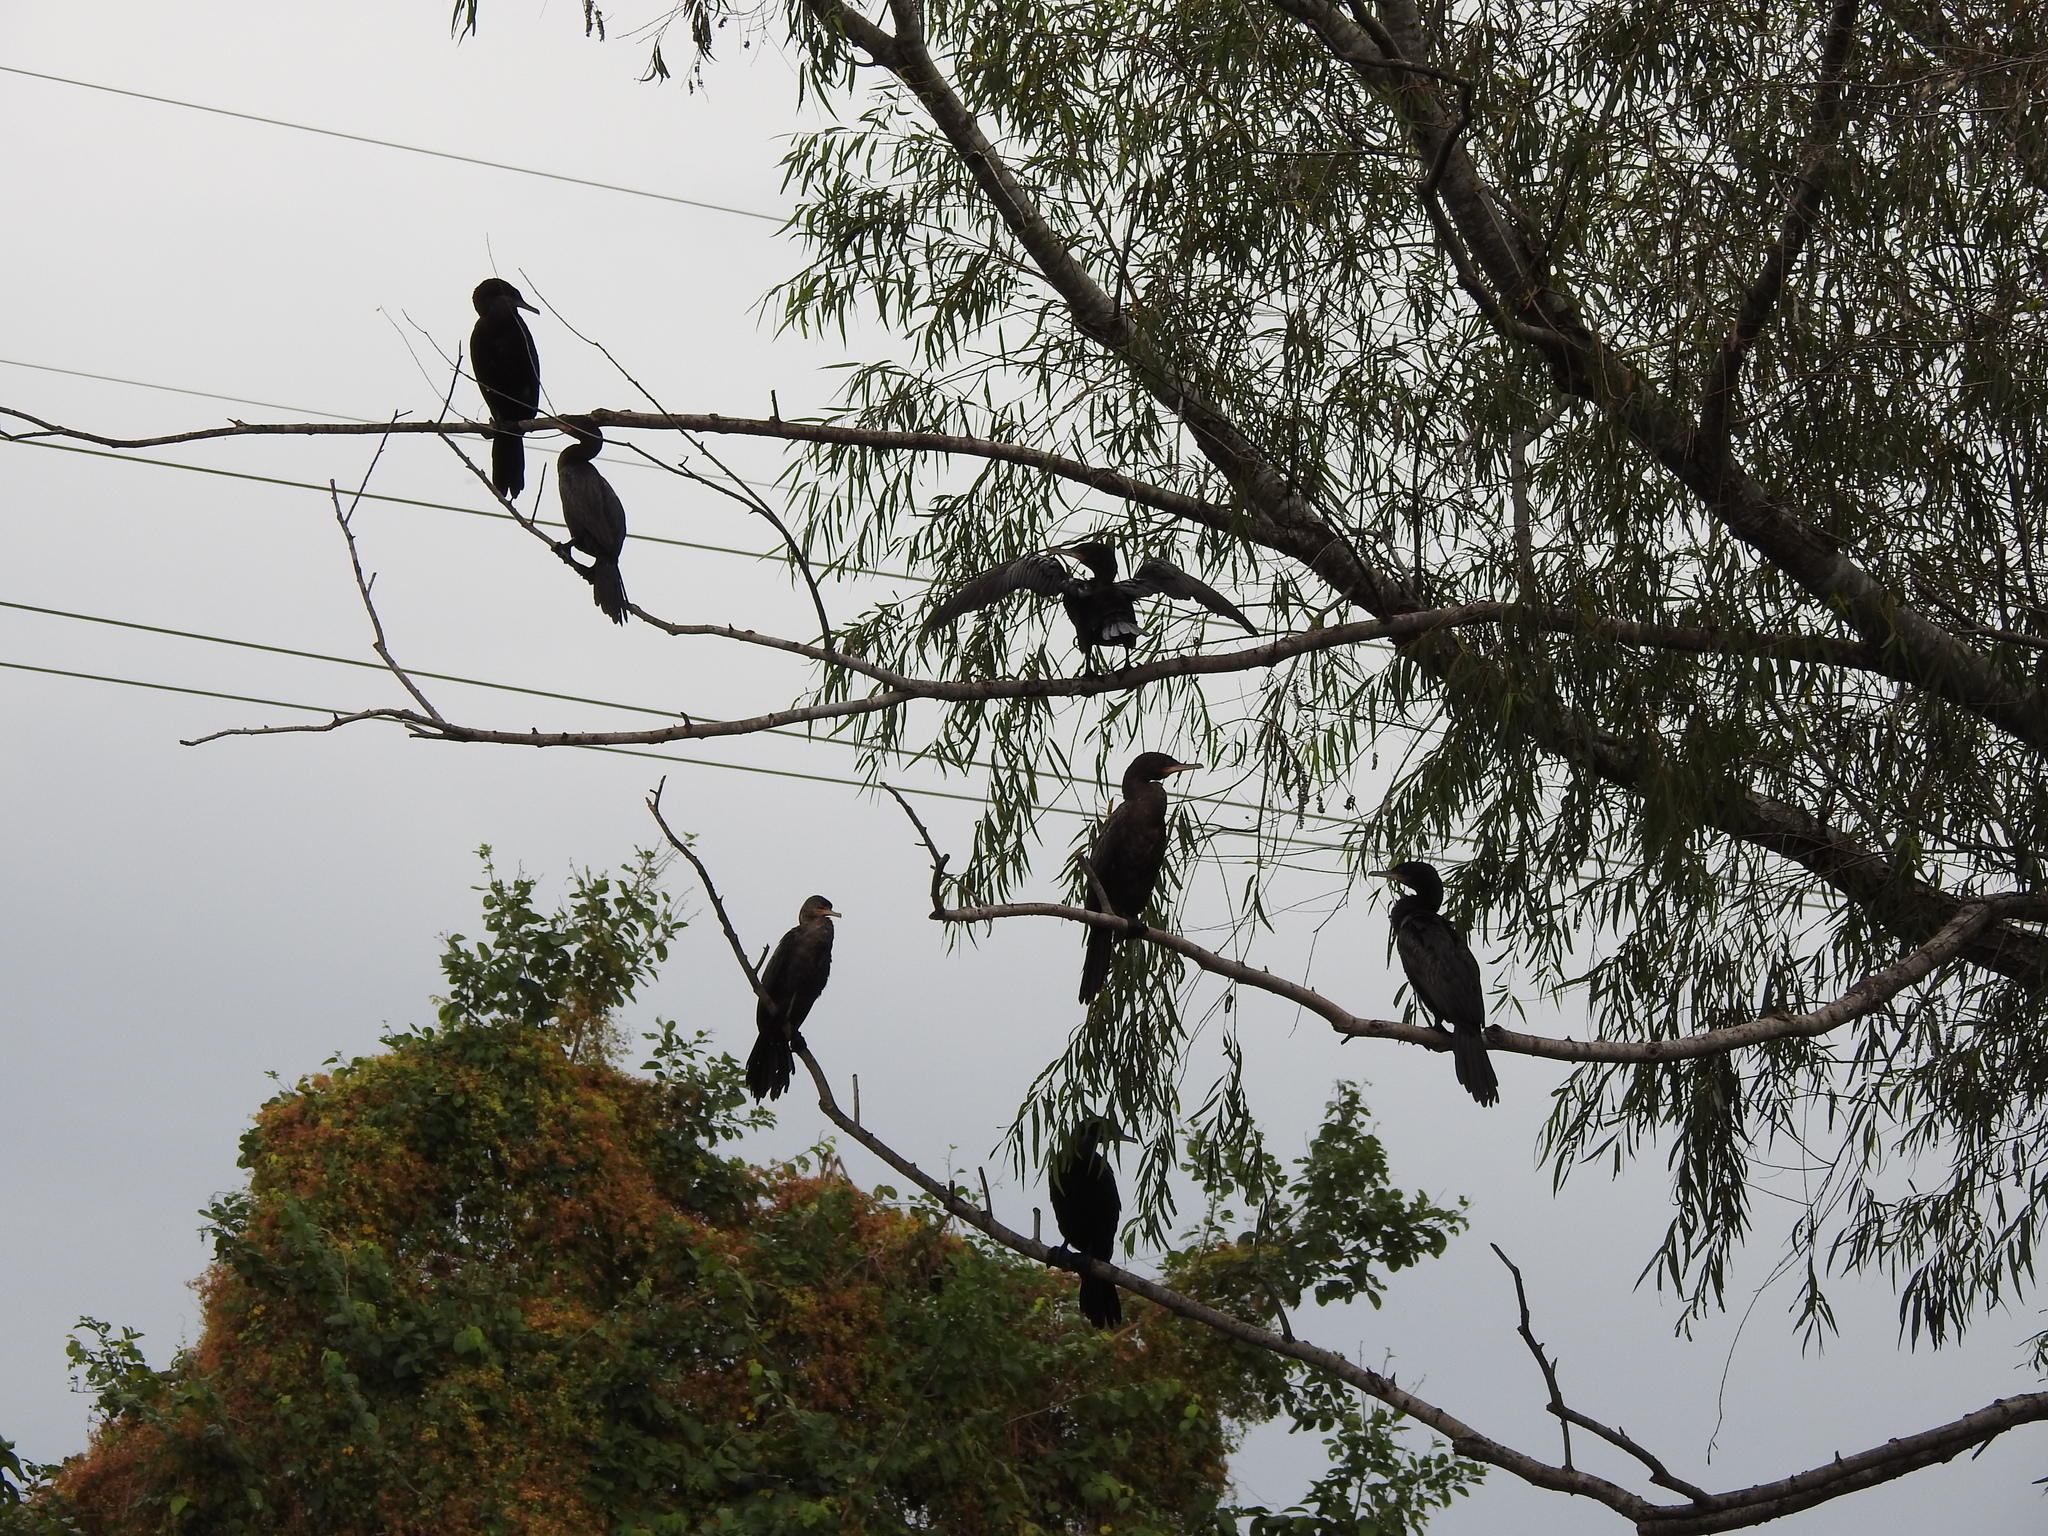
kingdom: Animalia
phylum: Chordata
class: Aves
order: Suliformes
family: Phalacrocoracidae
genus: Phalacrocorax
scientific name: Phalacrocorax brasilianus
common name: Neotropic cormorant
